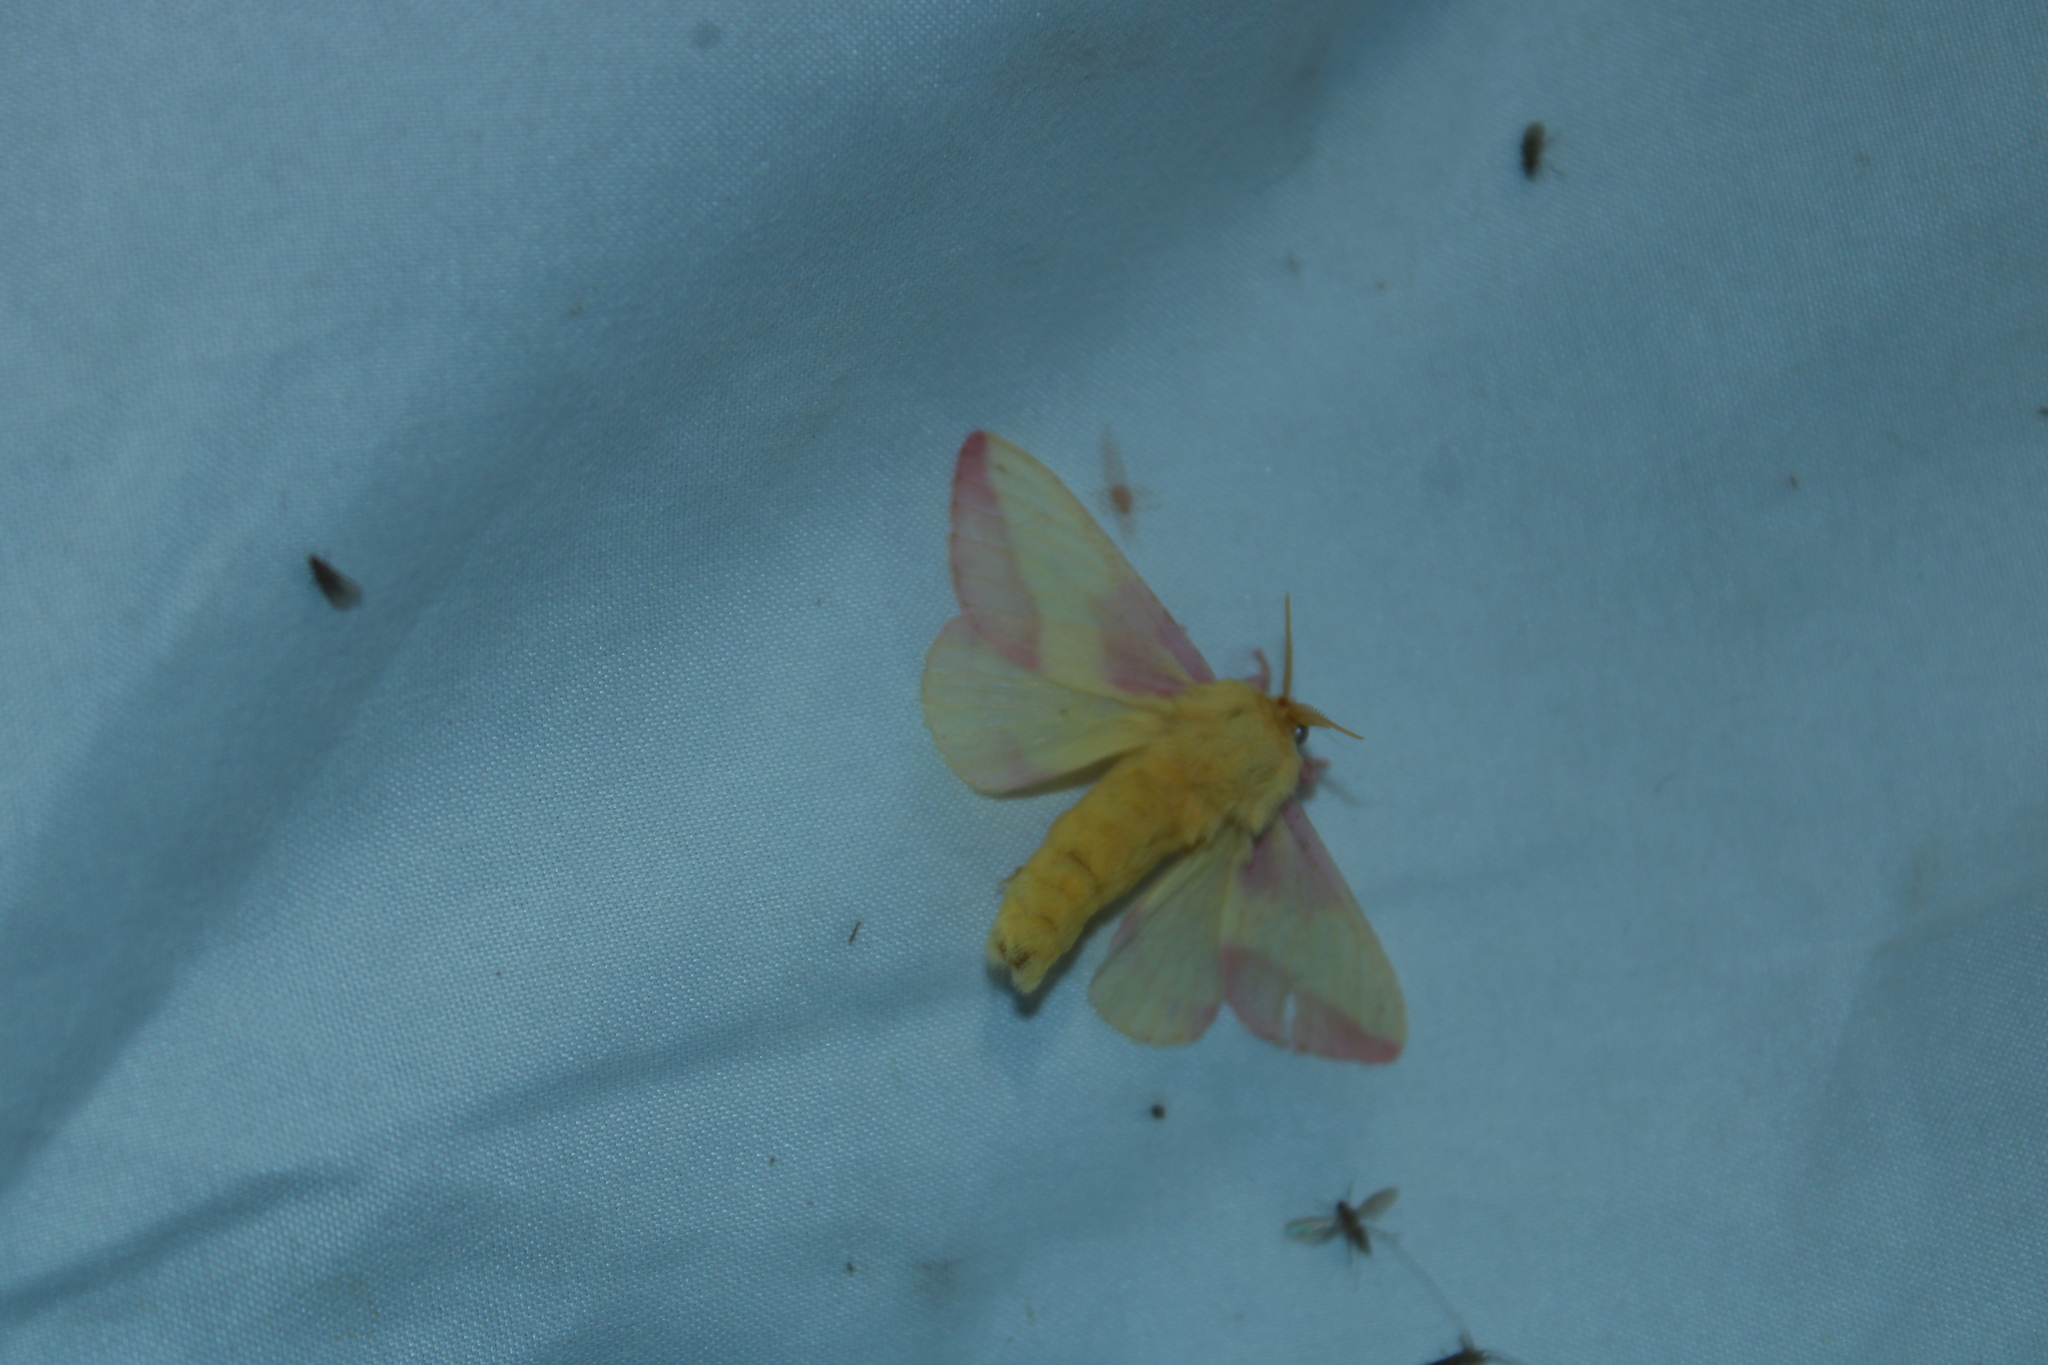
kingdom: Animalia
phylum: Arthropoda
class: Insecta
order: Lepidoptera
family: Saturniidae
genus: Dryocampa
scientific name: Dryocampa rubicunda
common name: Rosy maple moth
